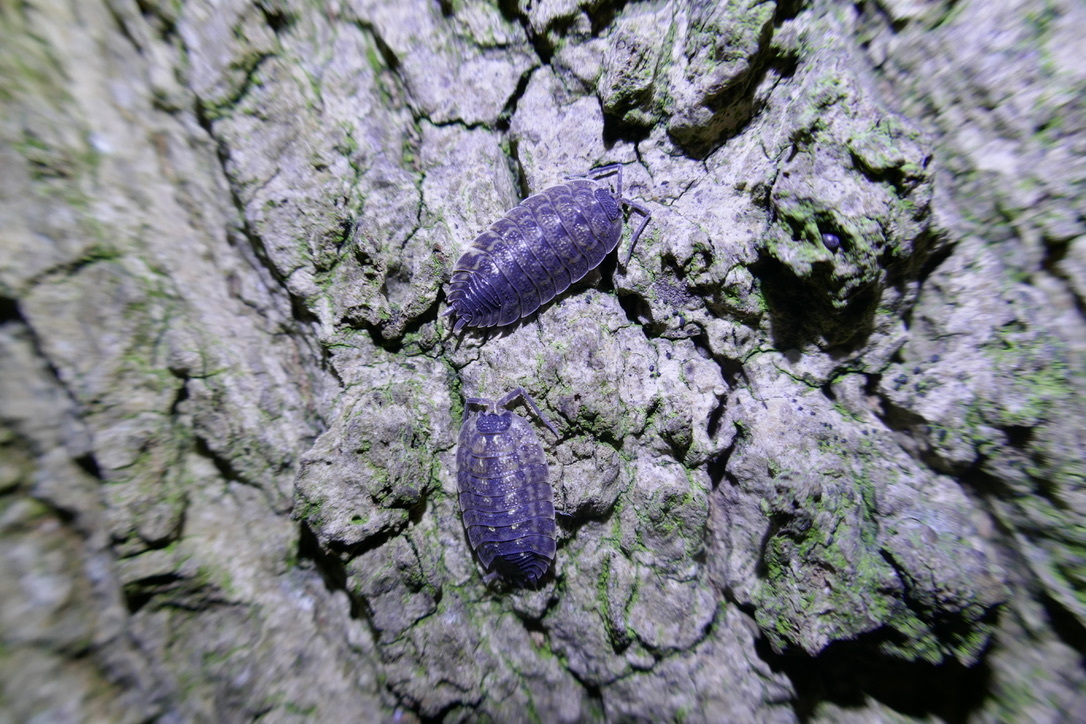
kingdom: Animalia
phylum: Arthropoda
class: Malacostraca
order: Isopoda
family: Porcellionidae
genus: Porcellio
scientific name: Porcellio spinicornis
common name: Painted woodlouse
